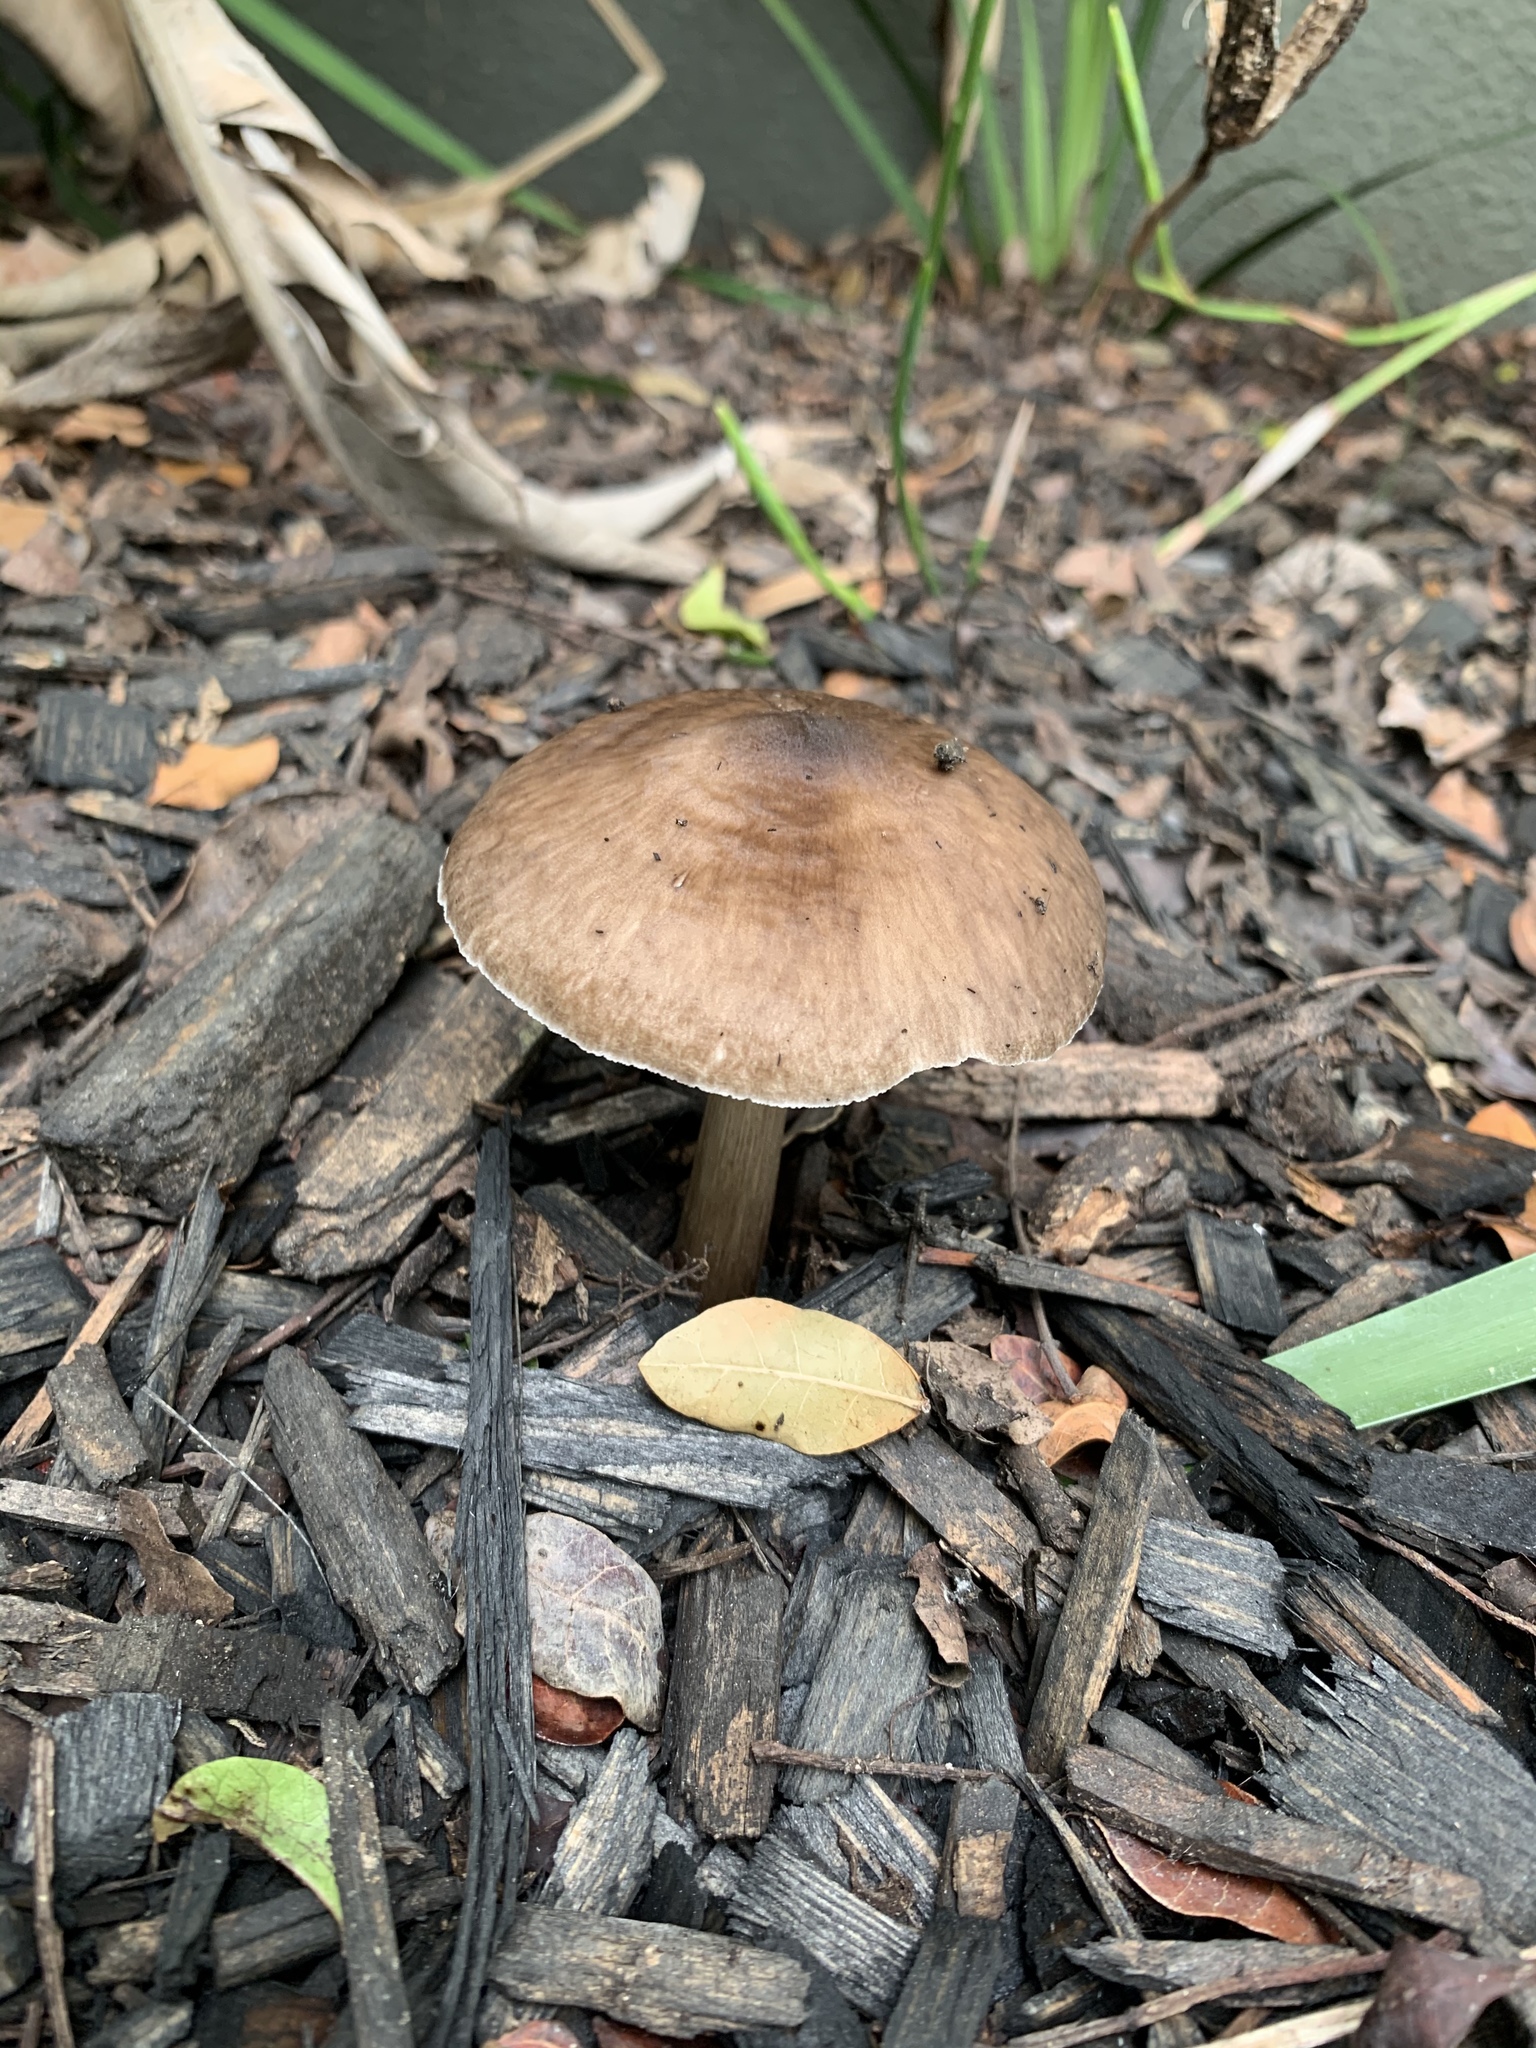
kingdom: Fungi
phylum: Basidiomycota
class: Agaricomycetes
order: Agaricales
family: Pluteaceae
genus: Pluteus
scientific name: Pluteus cervinus
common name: Deer shield
